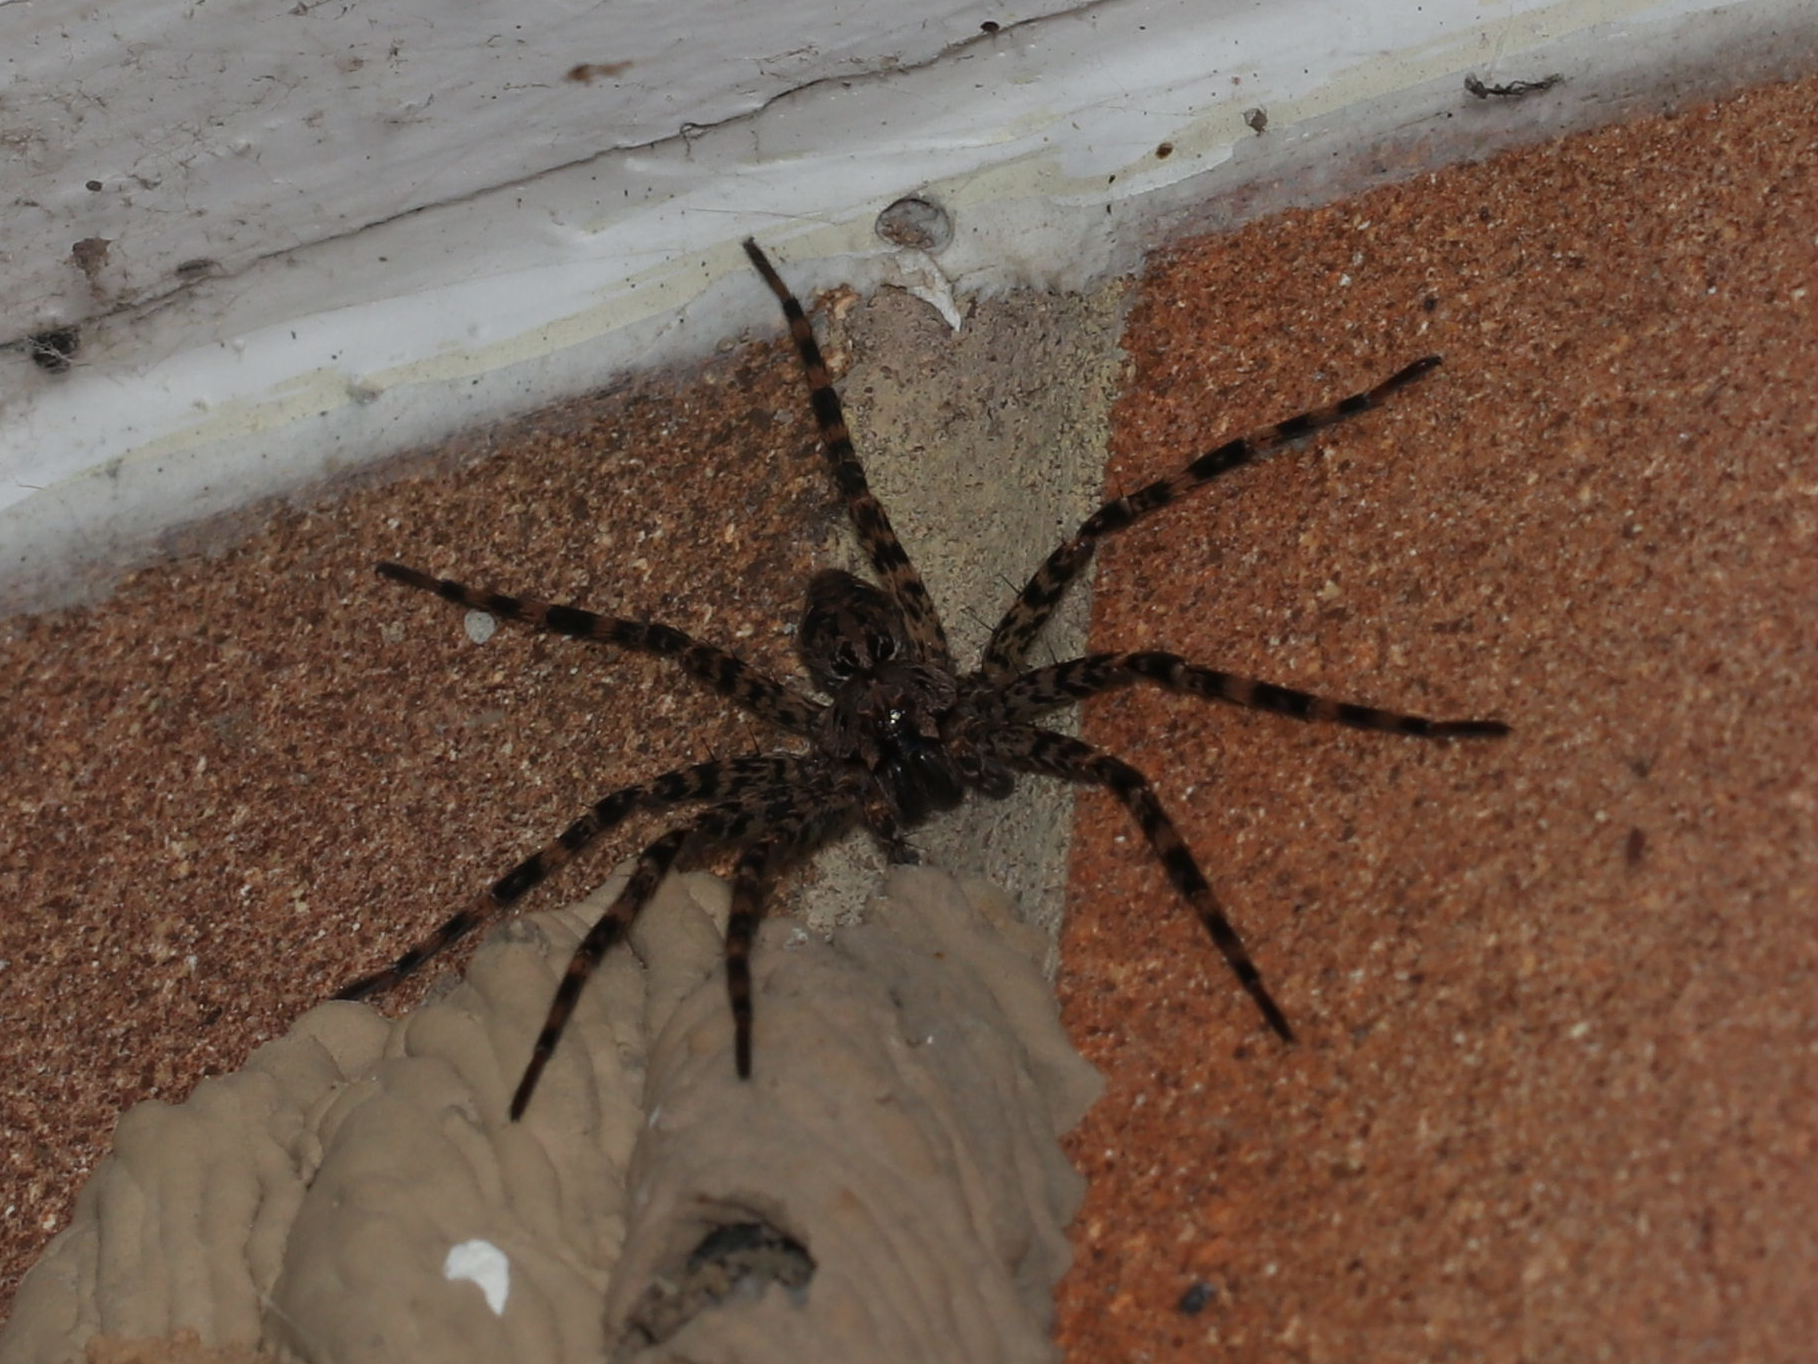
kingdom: Animalia
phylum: Arthropoda
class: Arachnida
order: Araneae
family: Pisauridae
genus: Dolomedes
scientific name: Dolomedes tenebrosus
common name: Dark fishing spider
